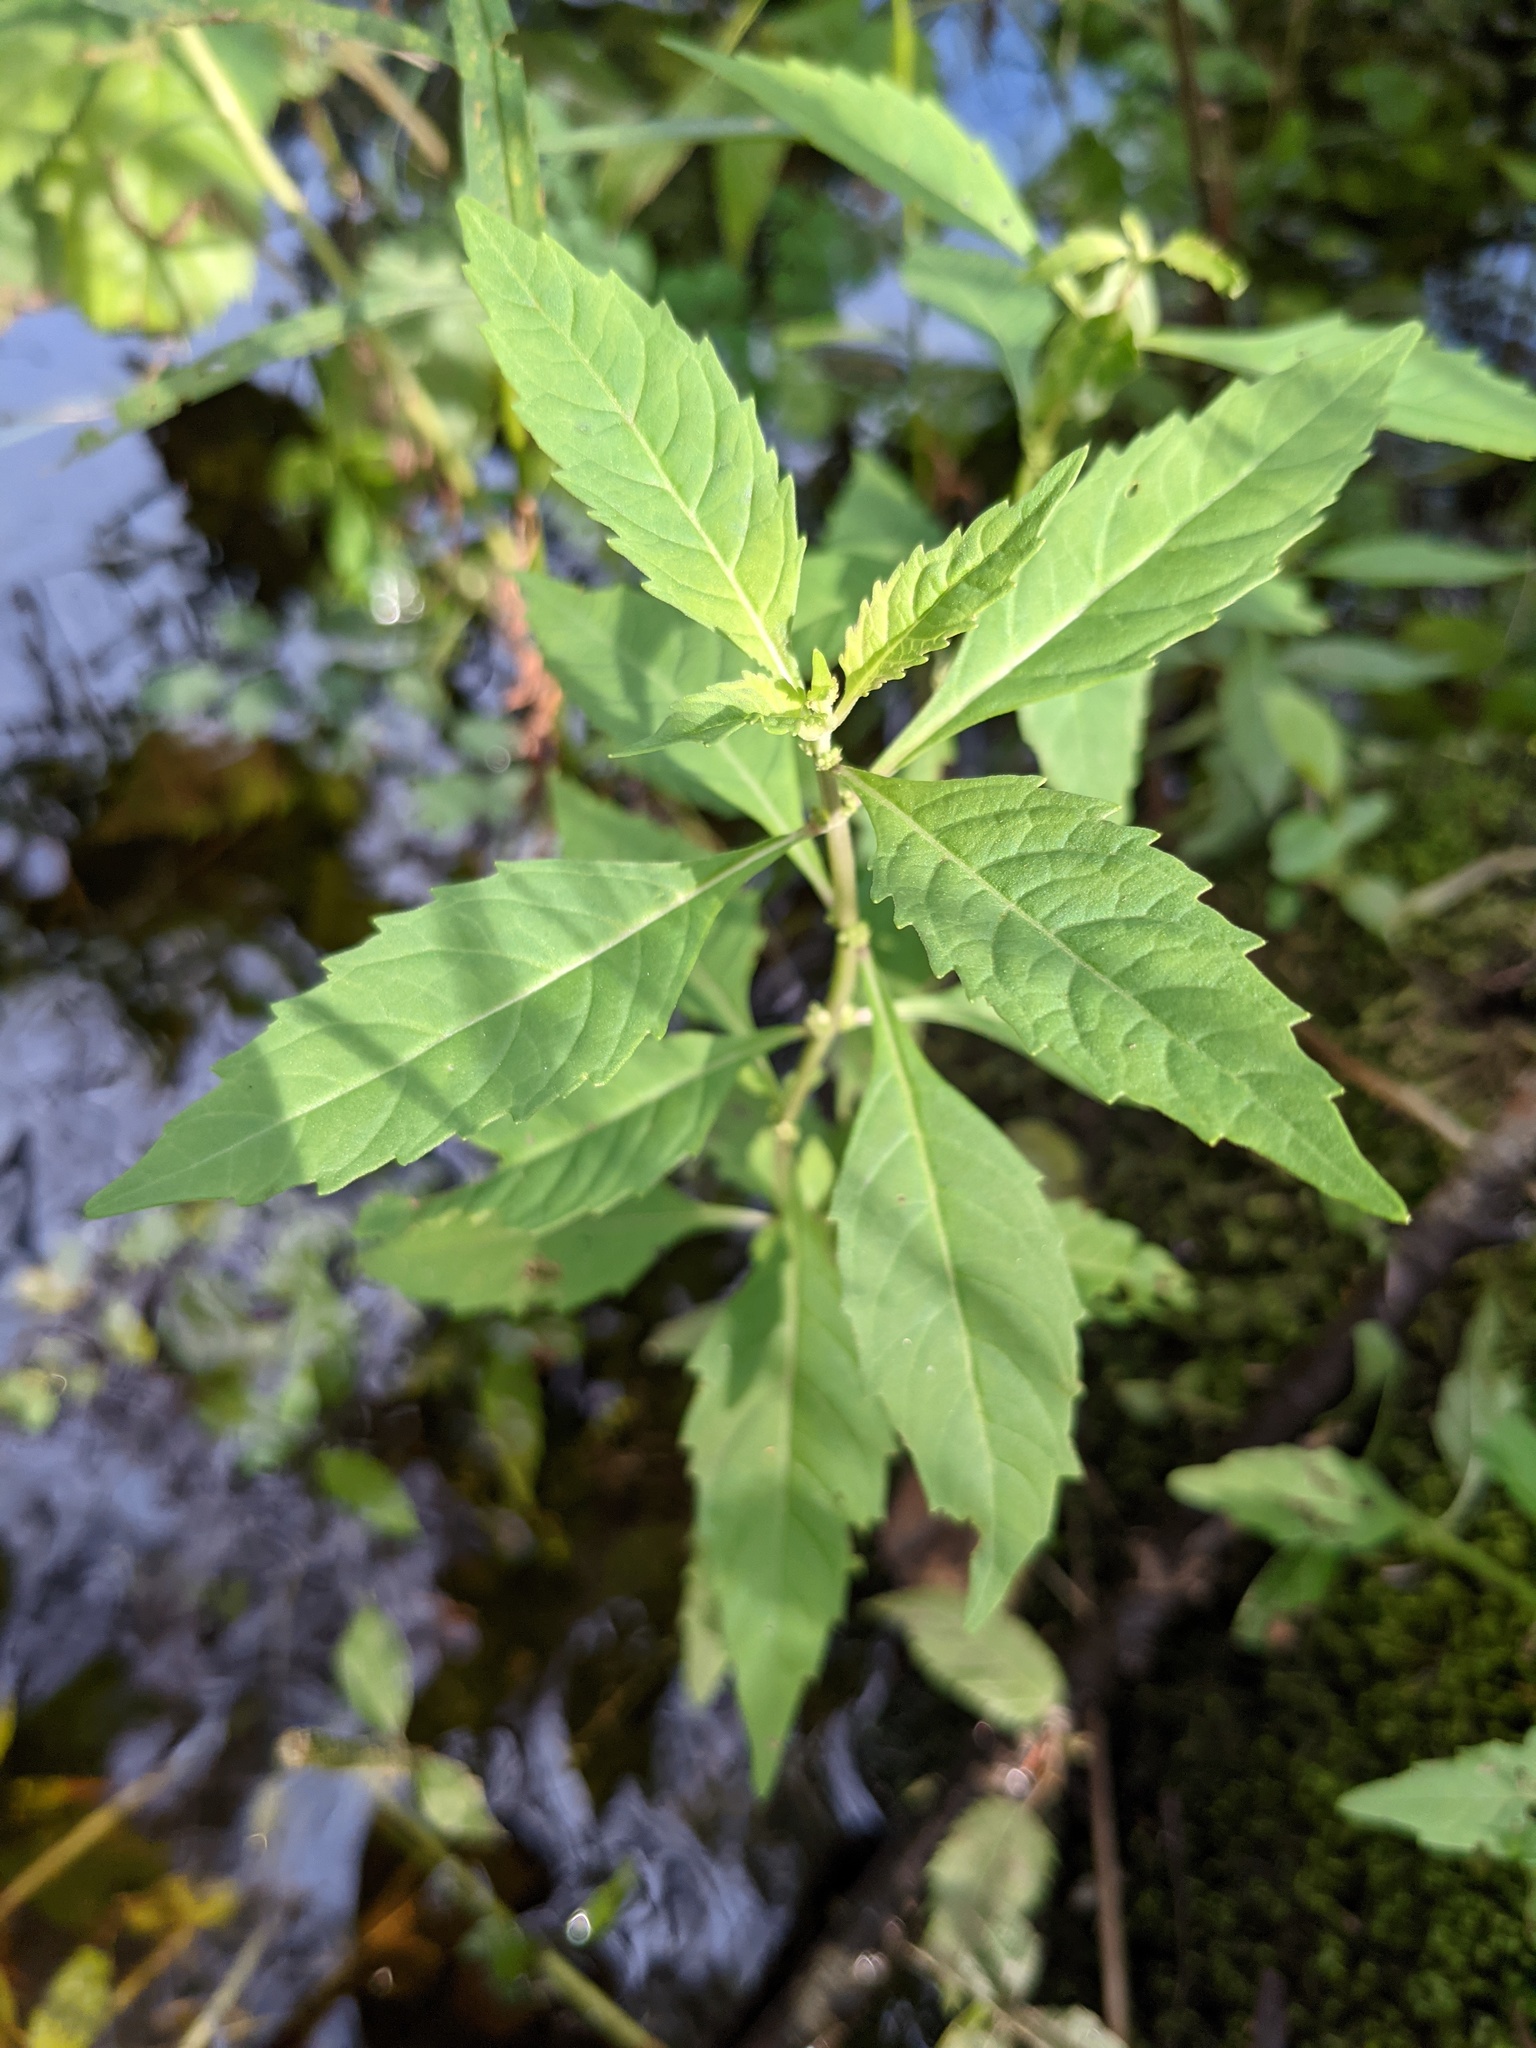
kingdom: Plantae
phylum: Tracheophyta
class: Magnoliopsida
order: Lamiales
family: Lamiaceae
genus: Lycopus
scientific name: Lycopus uniflorus
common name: Northern bugleweed
